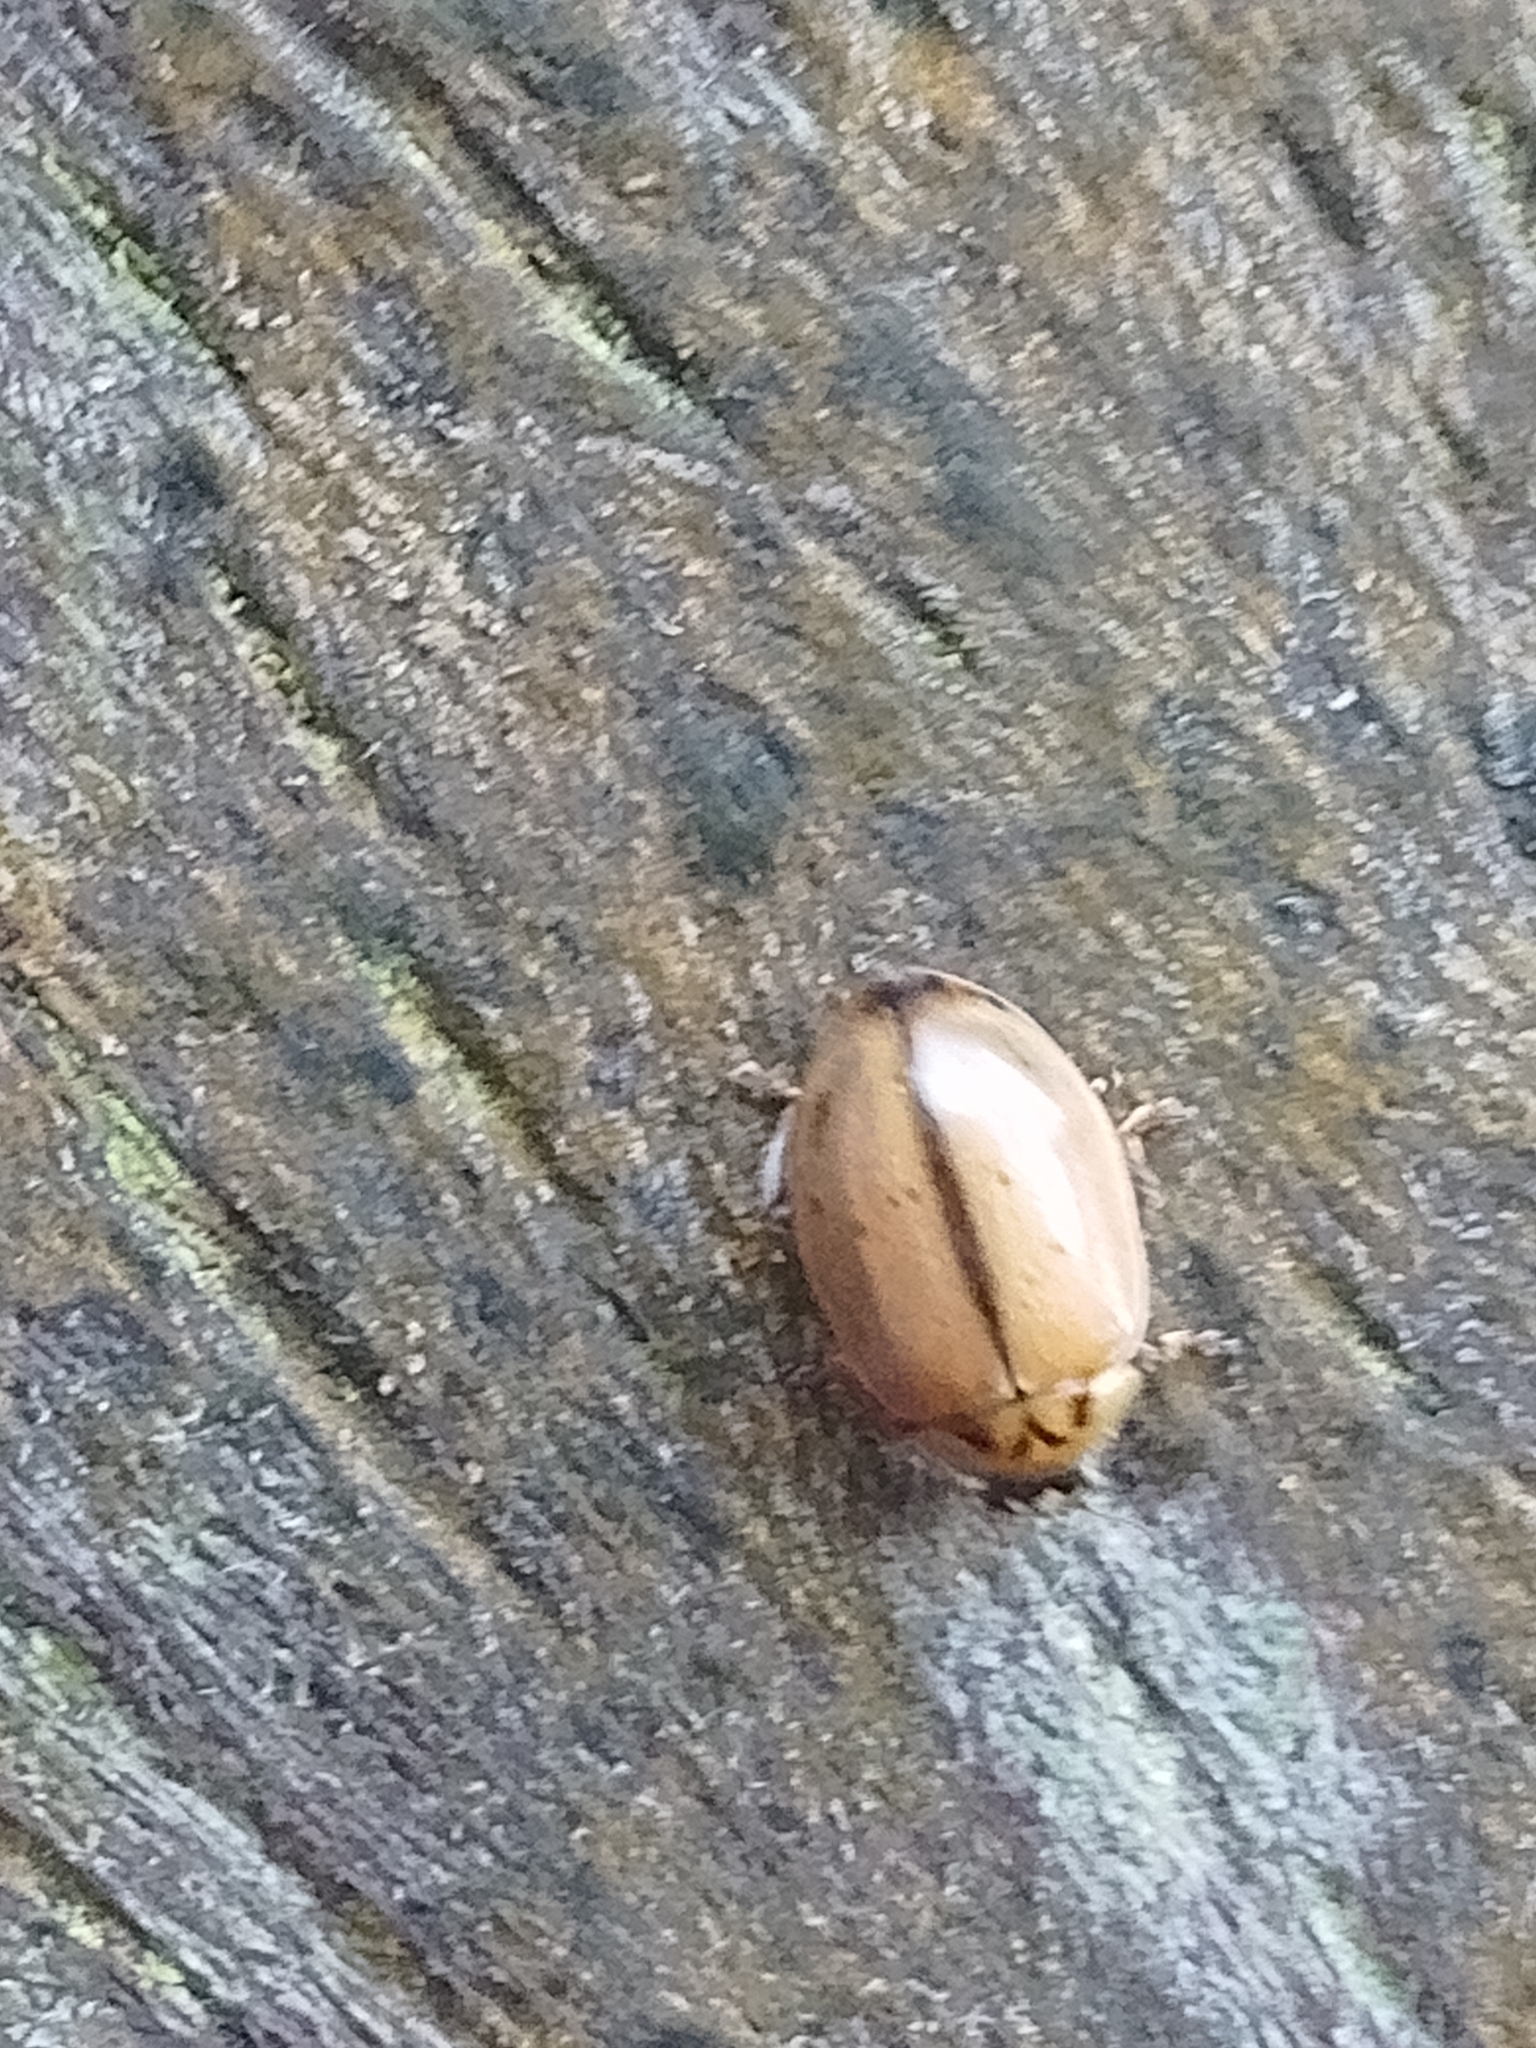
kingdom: Animalia
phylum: Arthropoda
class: Insecta
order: Coleoptera
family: Coccinellidae
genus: Aphidecta
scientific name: Aphidecta obliterata
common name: Larch ladybird
